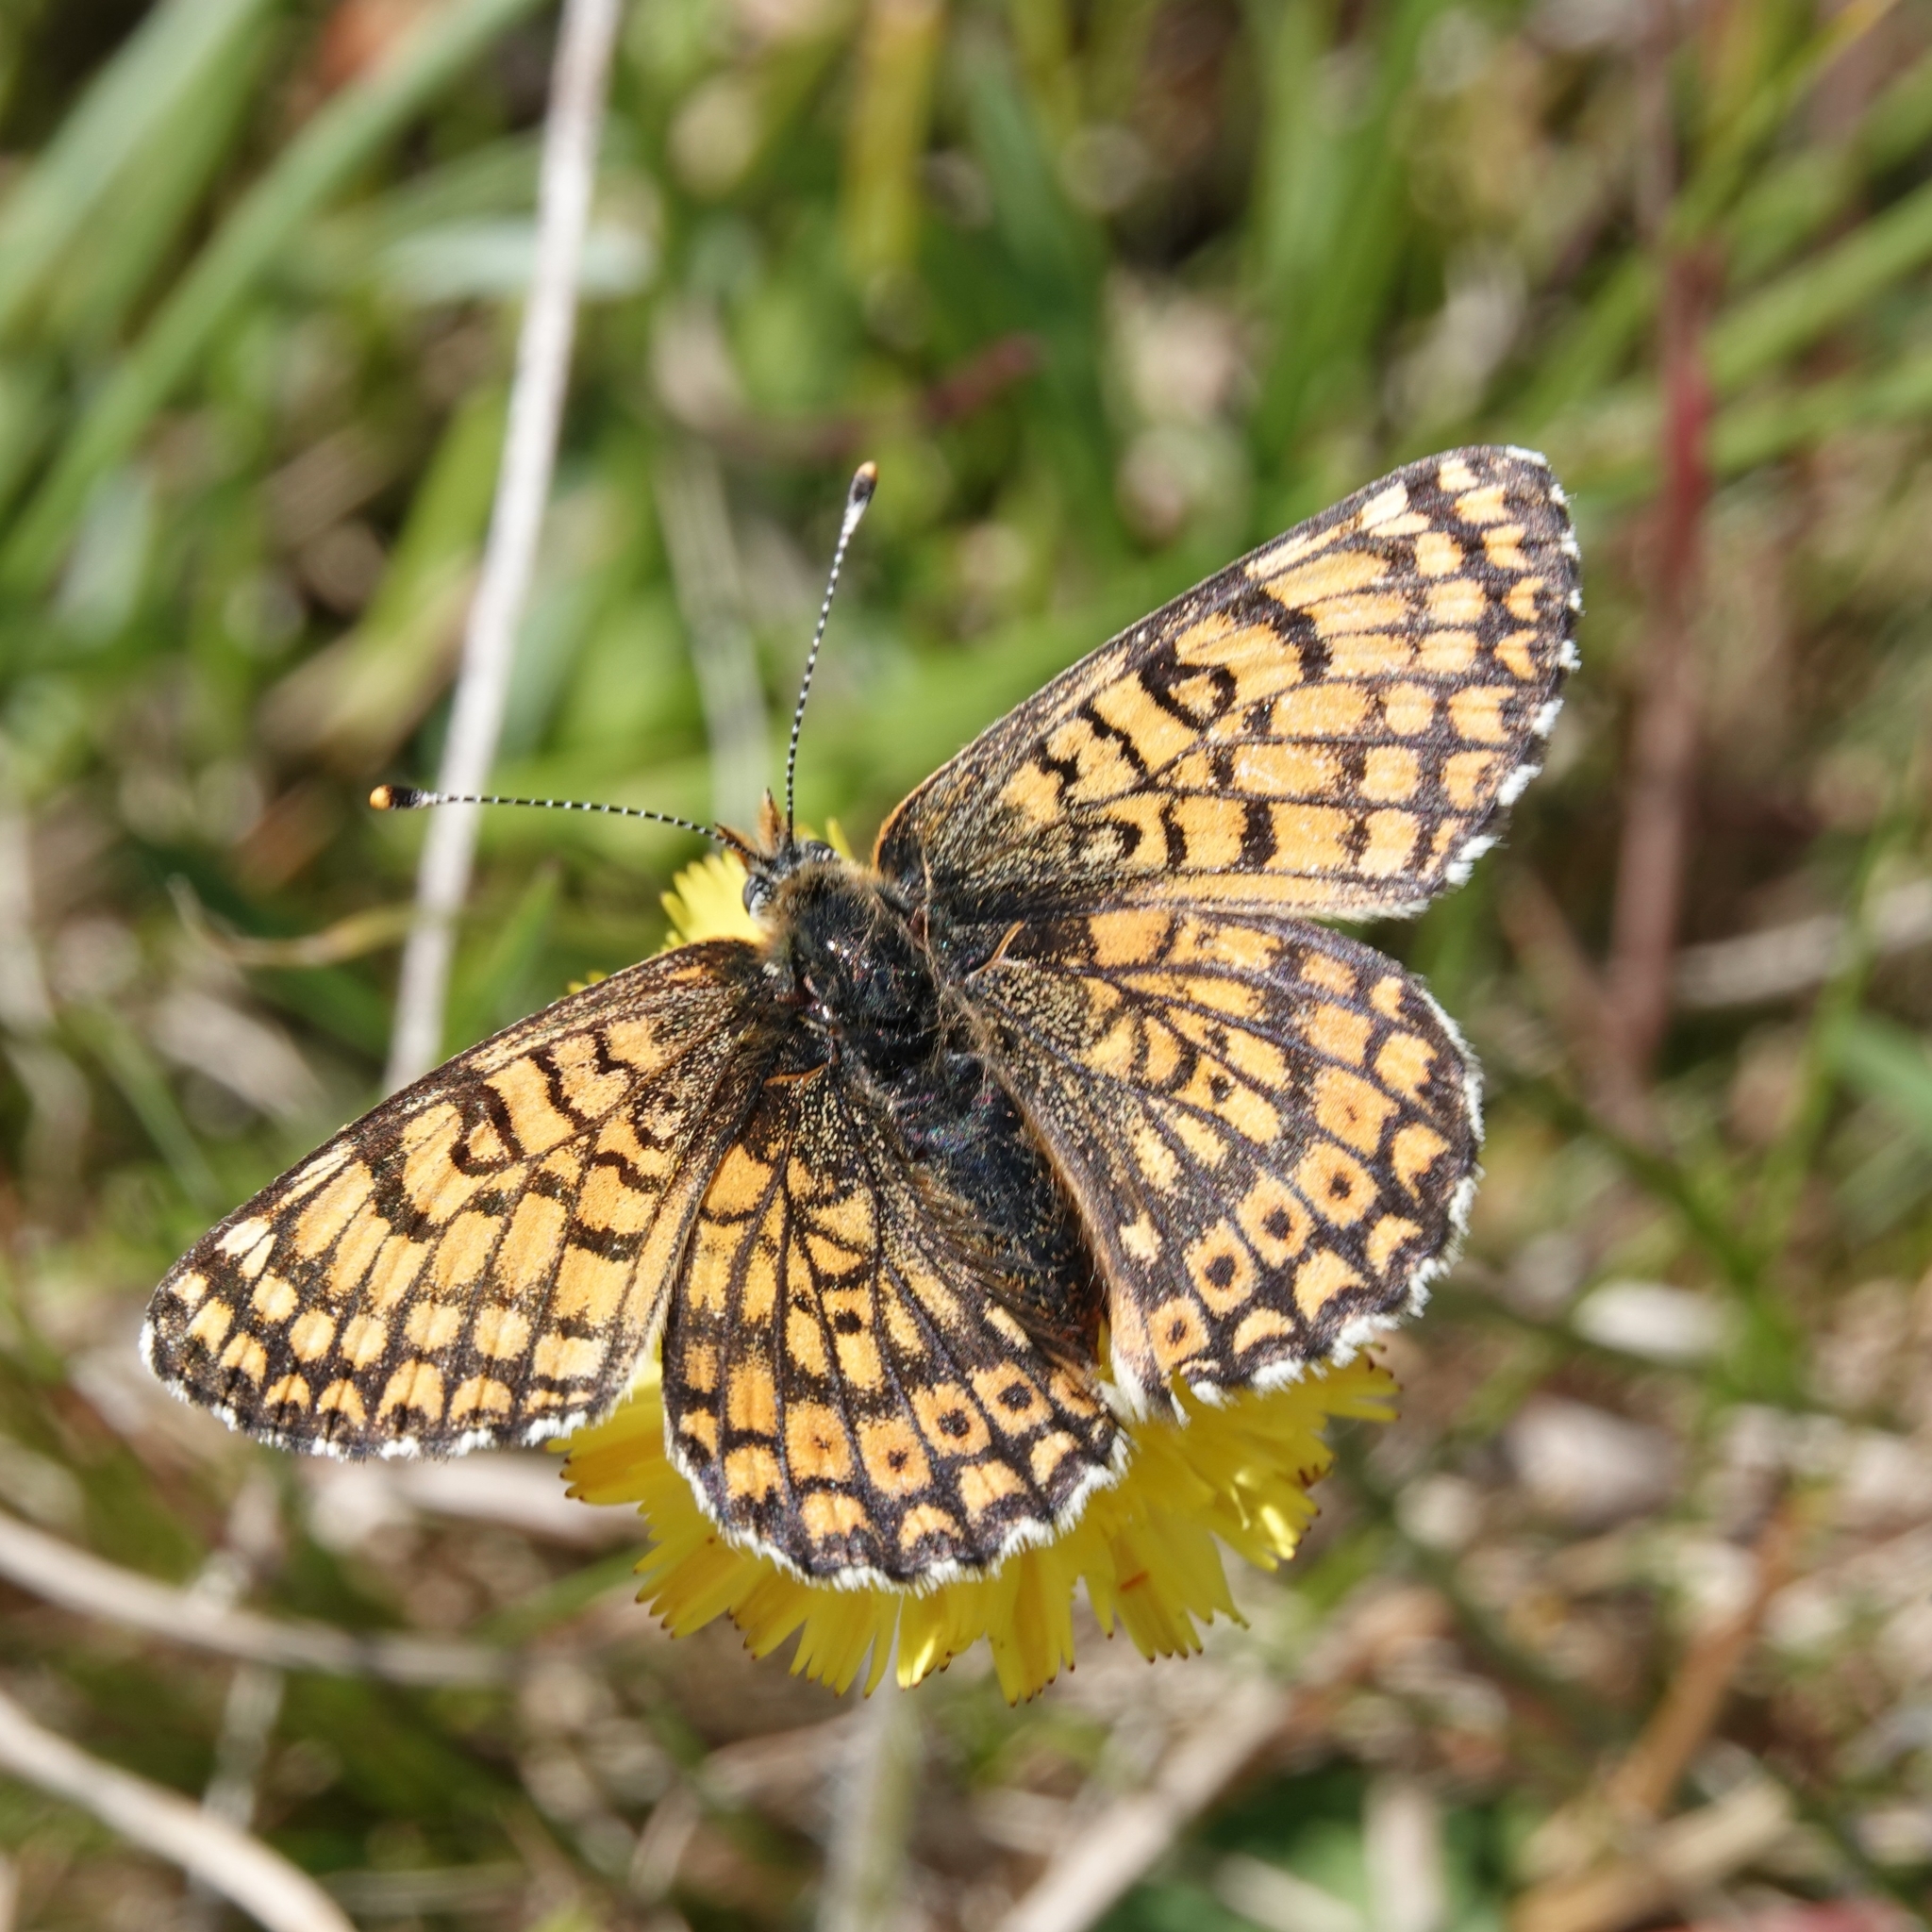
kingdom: Animalia
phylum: Arthropoda
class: Insecta
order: Lepidoptera
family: Nymphalidae
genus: Melitaea
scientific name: Melitaea cinxia
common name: Glanville fritillary
